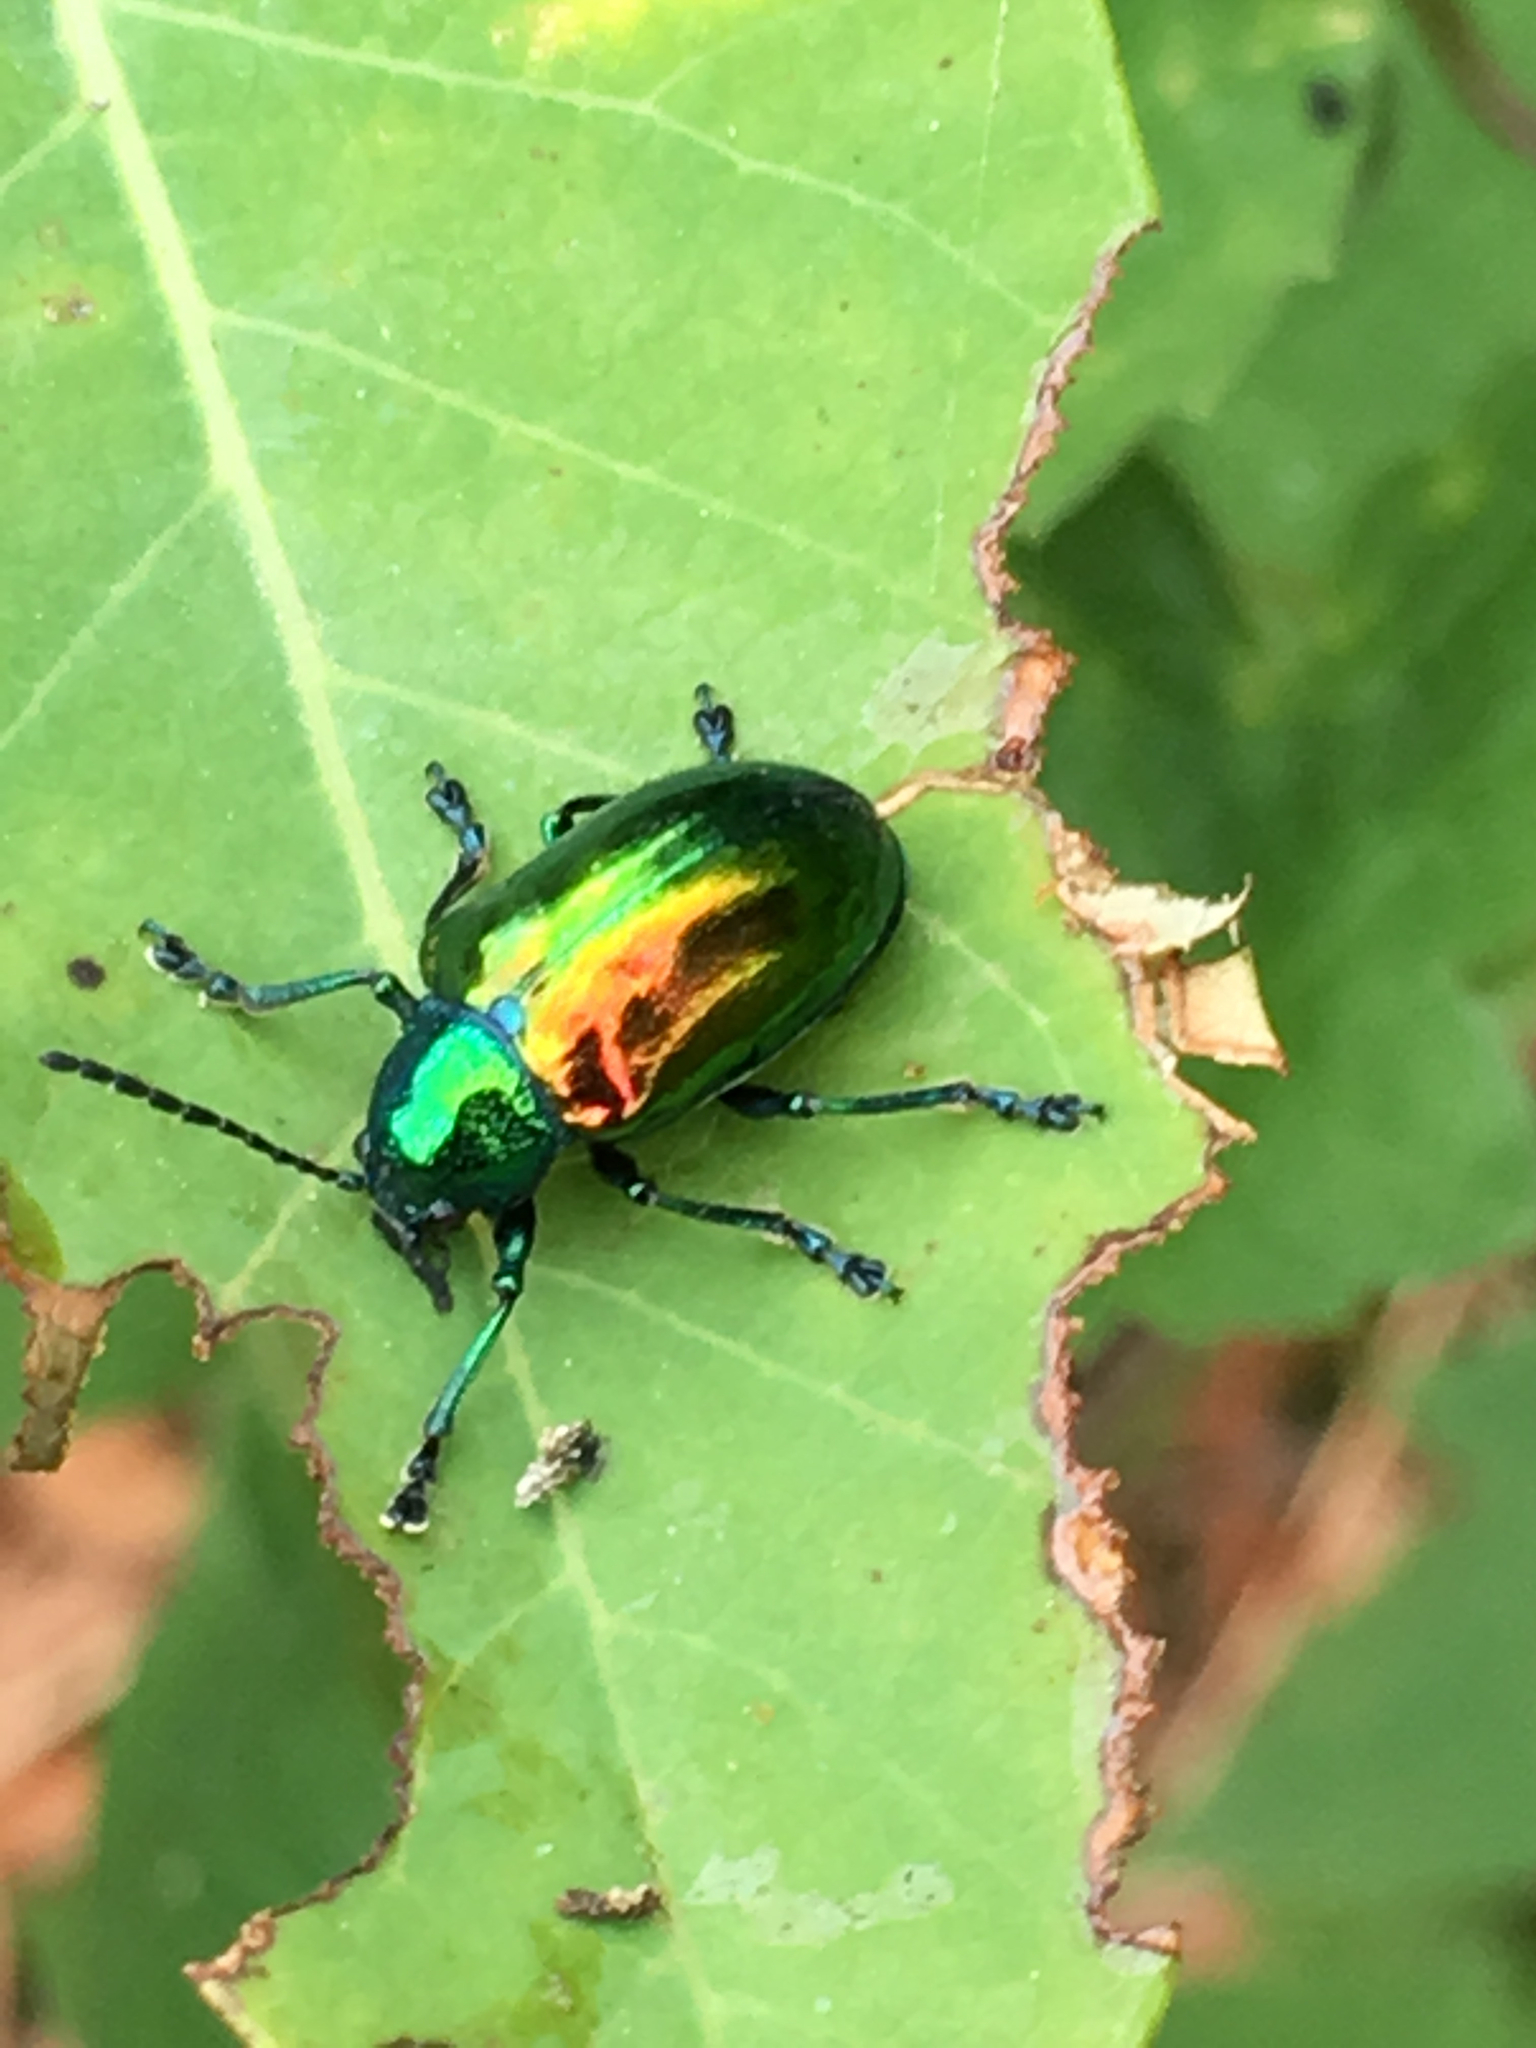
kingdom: Animalia
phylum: Arthropoda
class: Insecta
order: Coleoptera
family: Chrysomelidae
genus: Chrysochus
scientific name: Chrysochus auratus
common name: Dogbane leaf beetle
